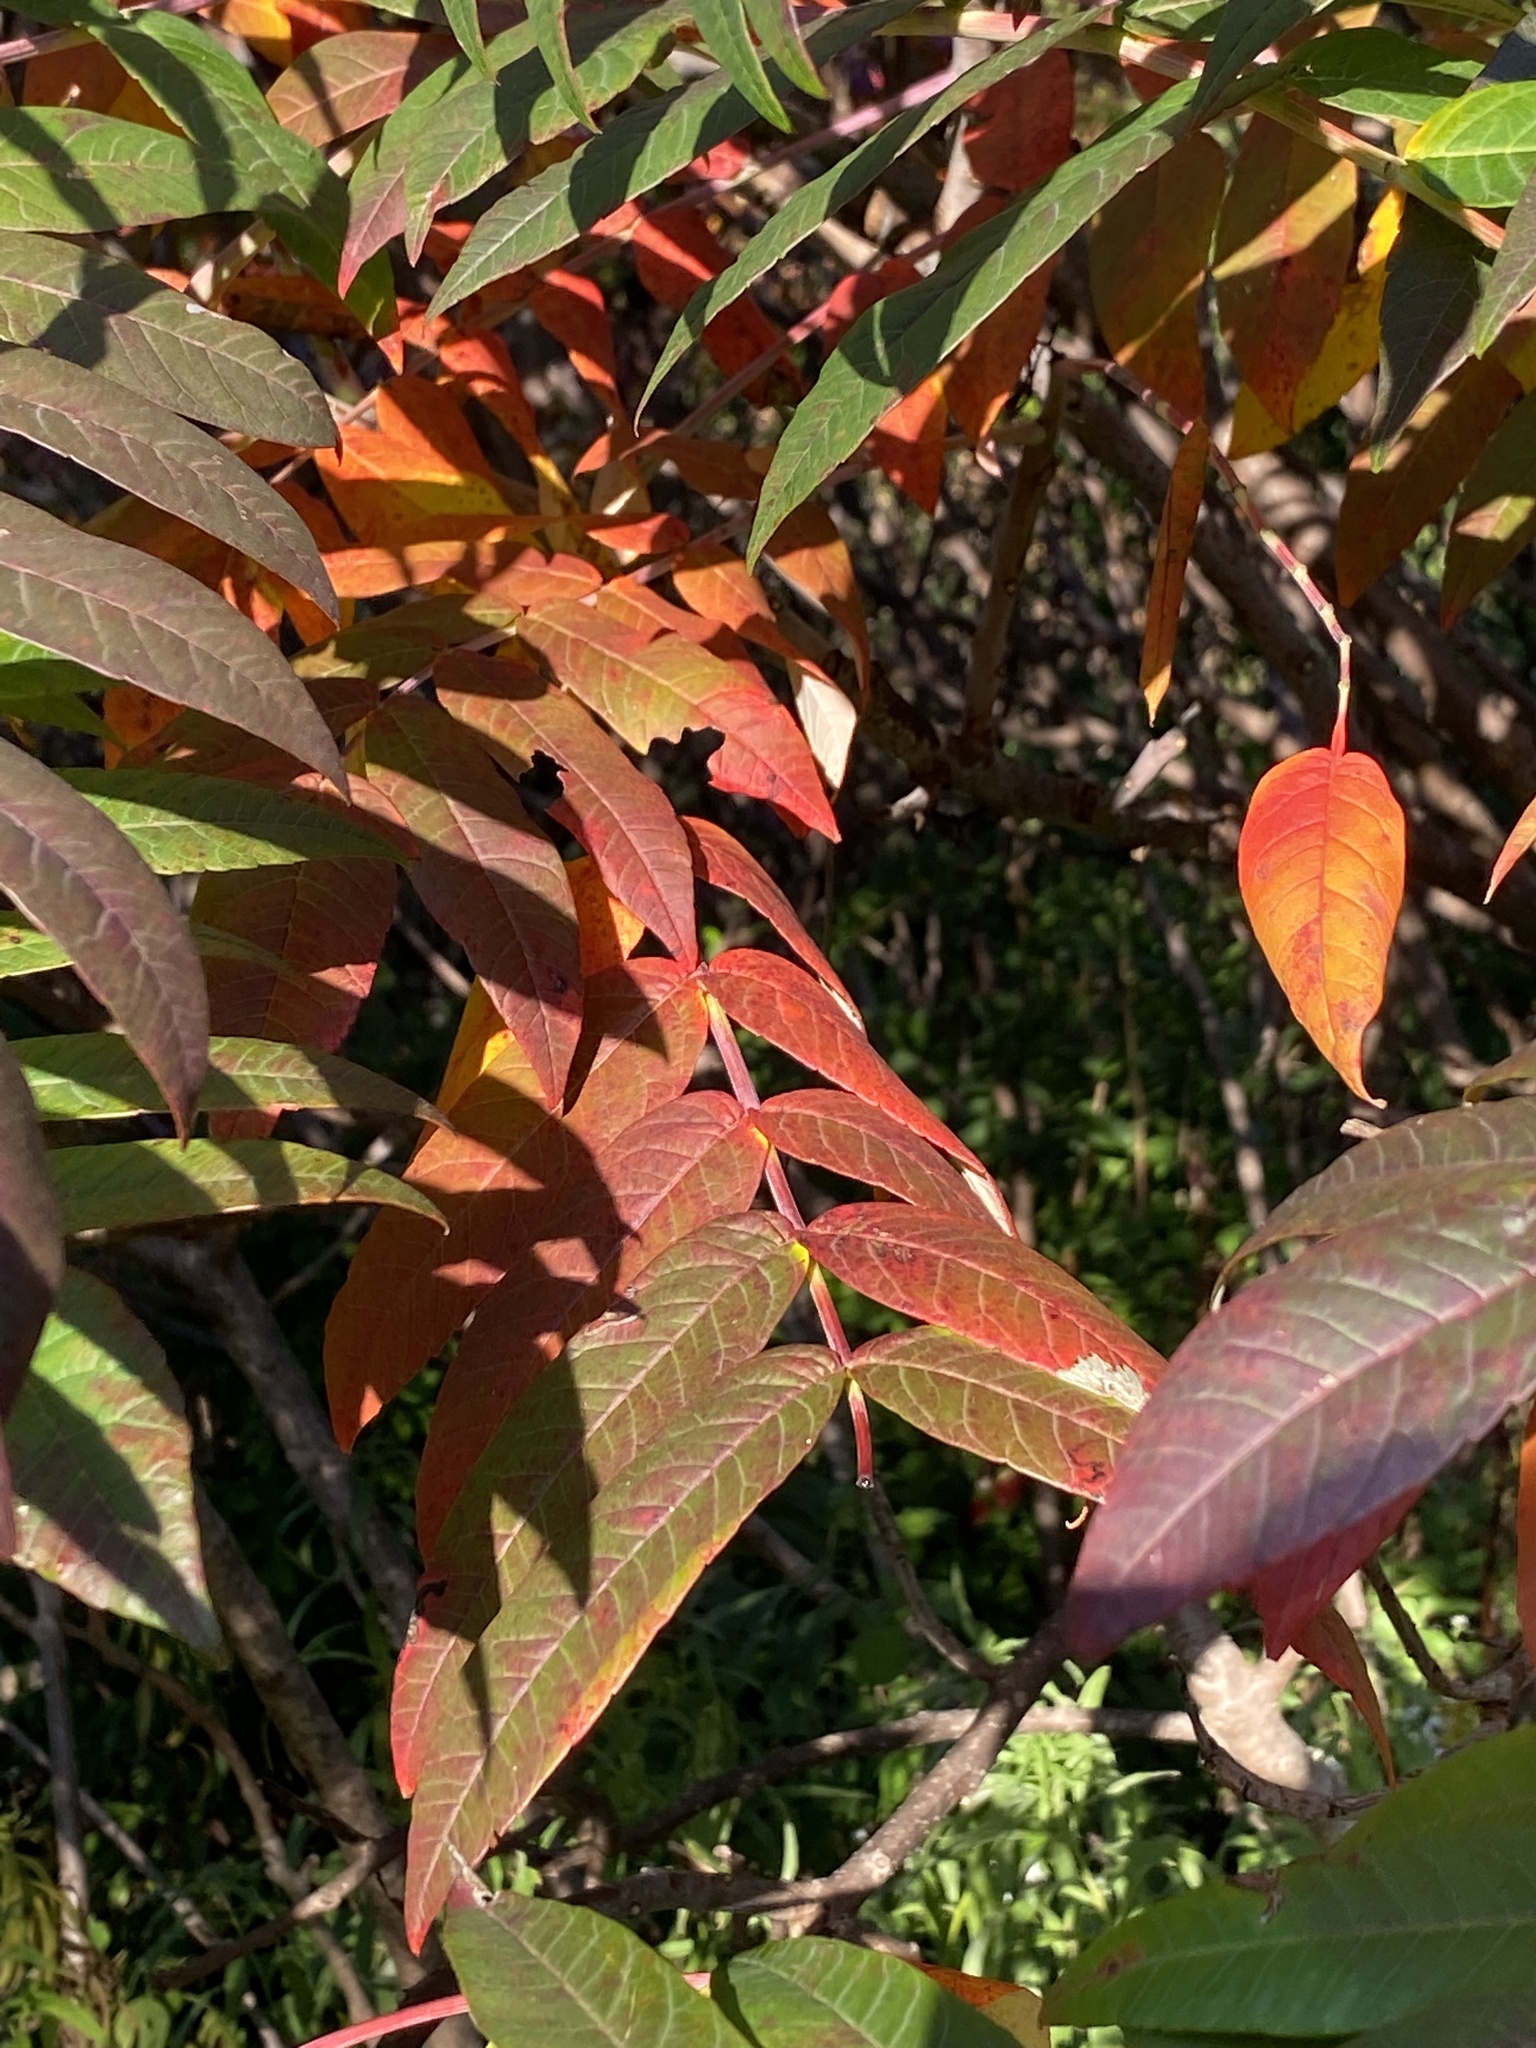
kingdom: Plantae
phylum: Tracheophyta
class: Magnoliopsida
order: Sapindales
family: Anacardiaceae
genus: Rhus
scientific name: Rhus glabra
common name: Scarlet sumac
